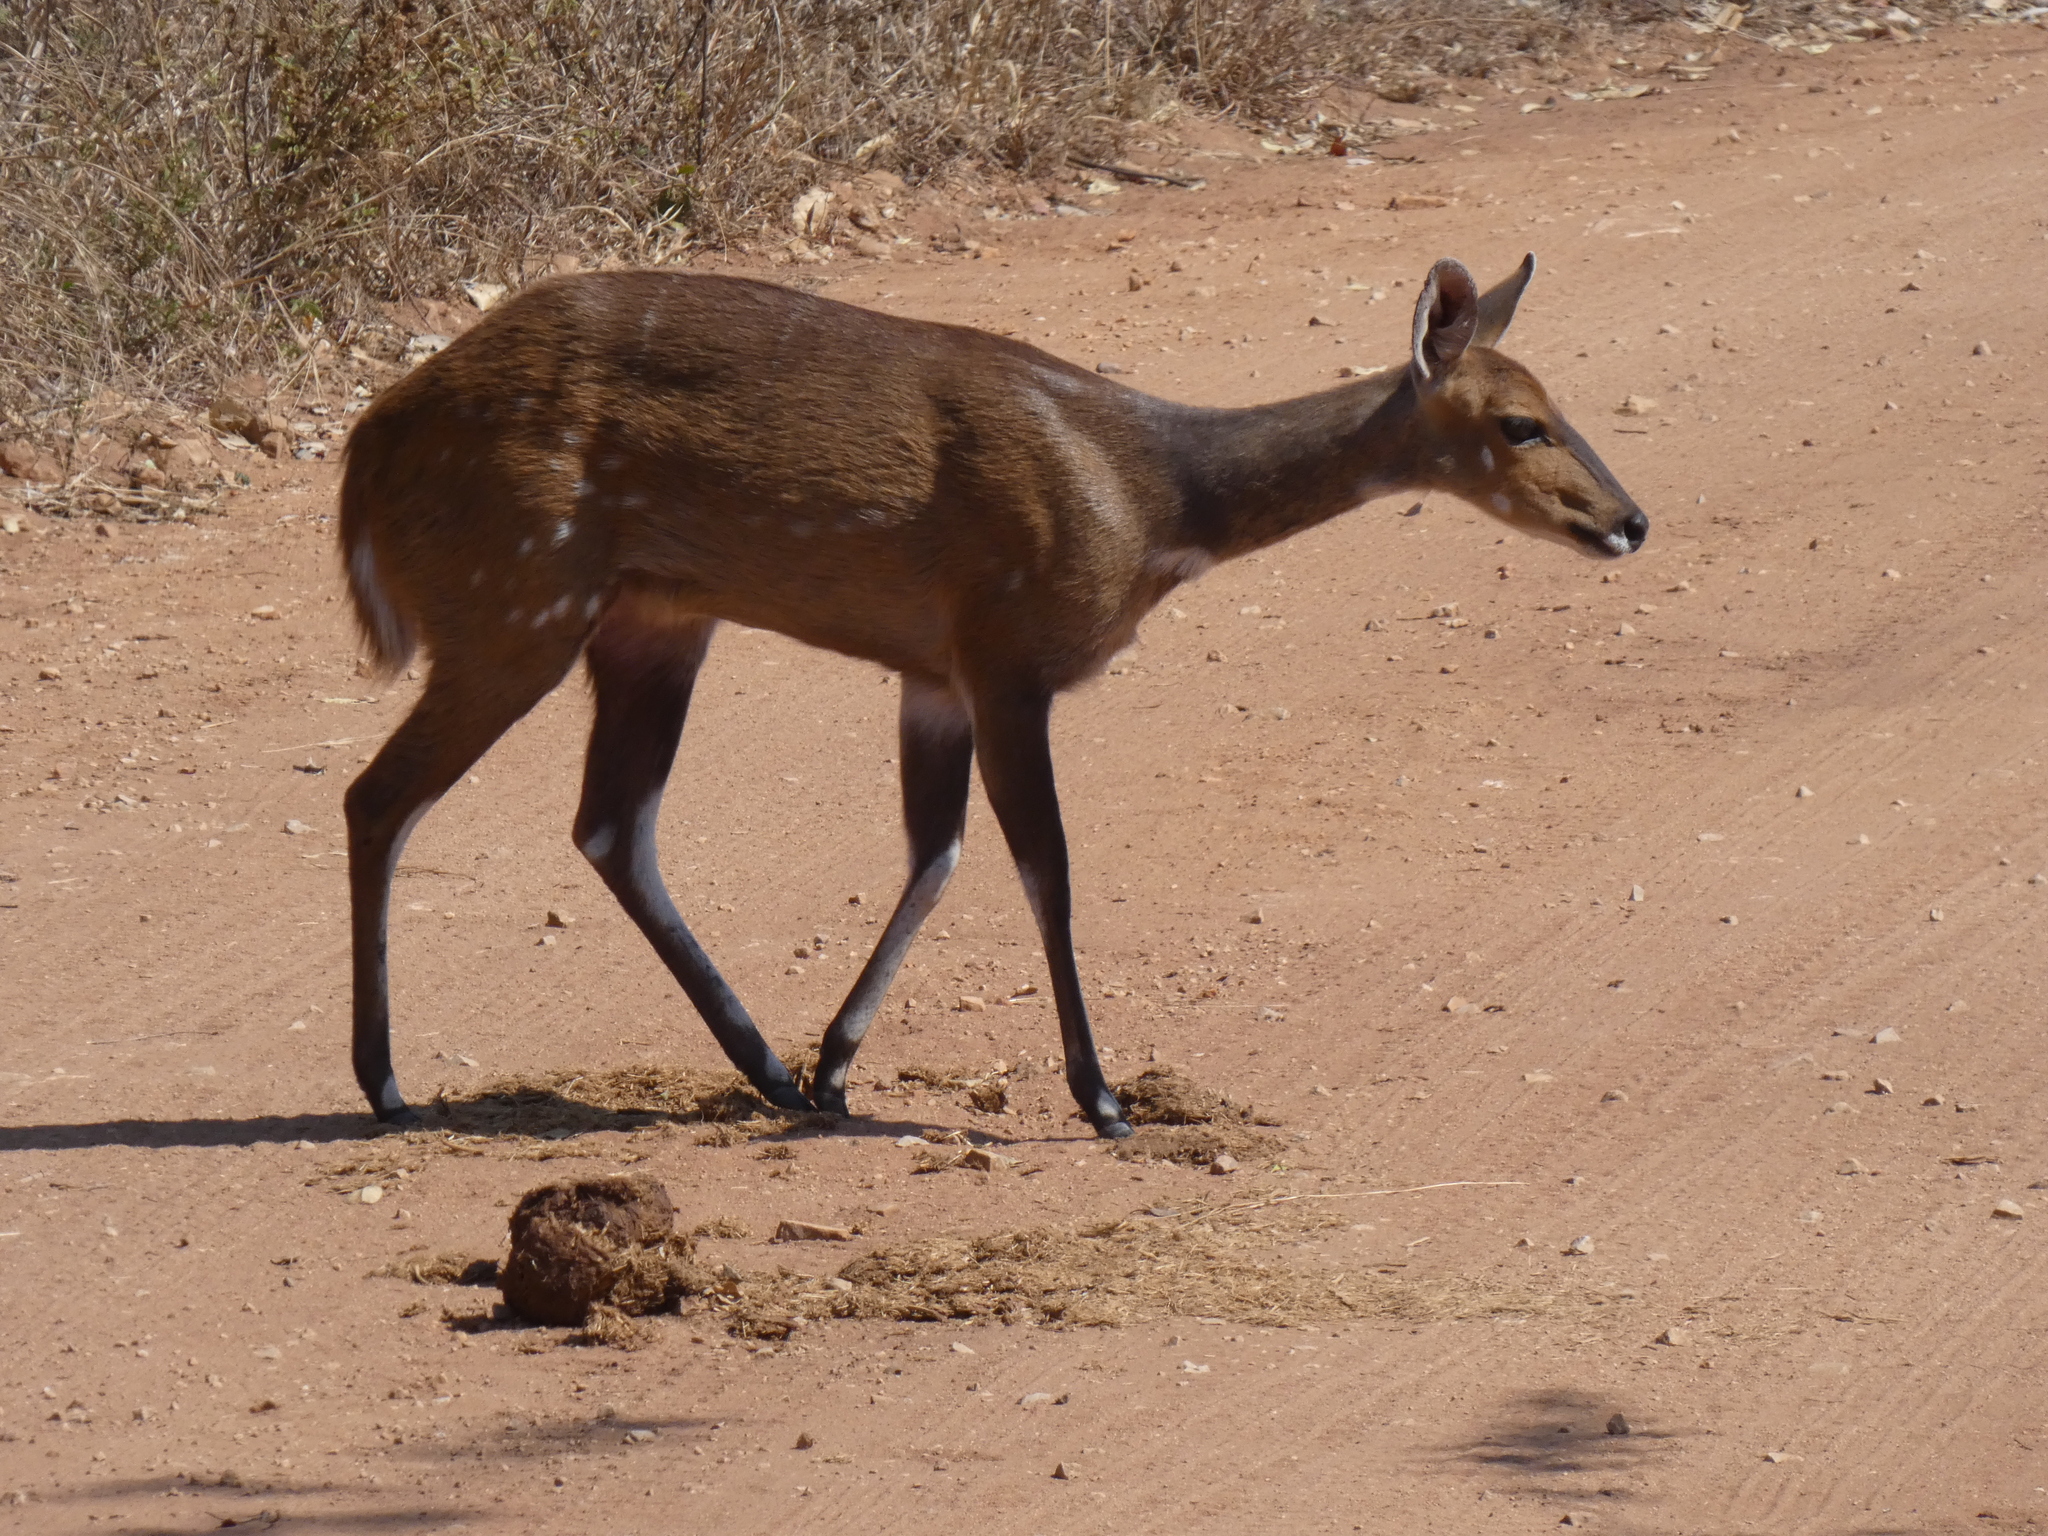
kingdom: Animalia
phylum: Chordata
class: Mammalia
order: Artiodactyla
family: Bovidae
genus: Tragelaphus
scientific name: Tragelaphus scriptus
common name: Bushbuck
